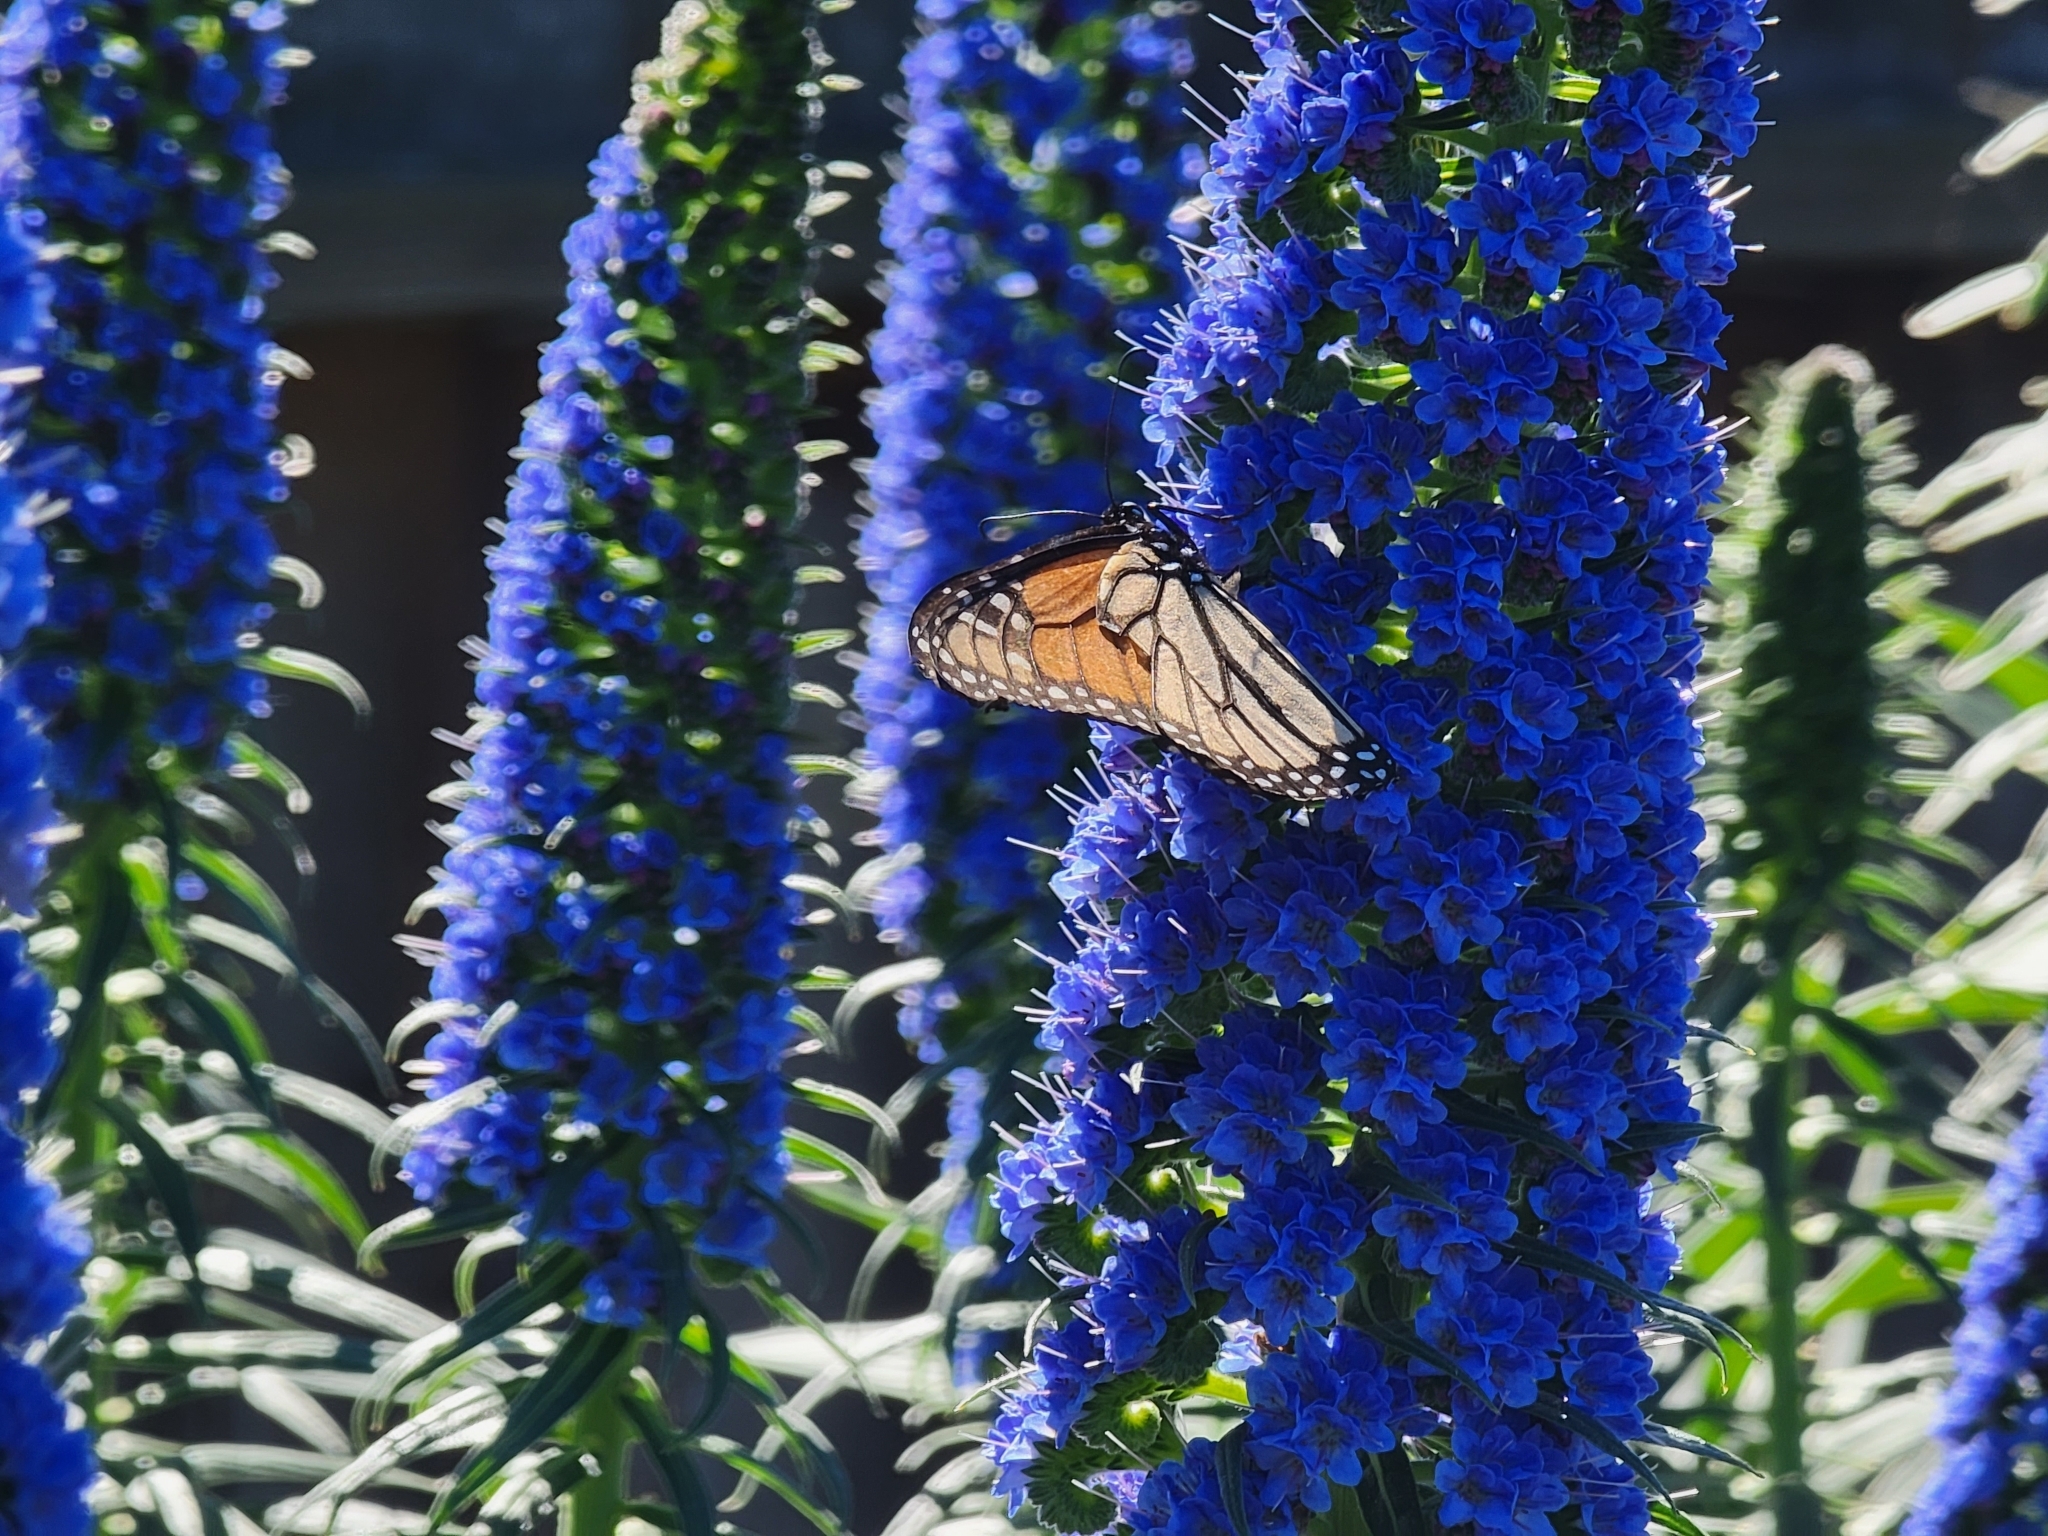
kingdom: Animalia
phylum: Arthropoda
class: Insecta
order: Lepidoptera
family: Nymphalidae
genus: Danaus
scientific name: Danaus plexippus
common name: Monarch
